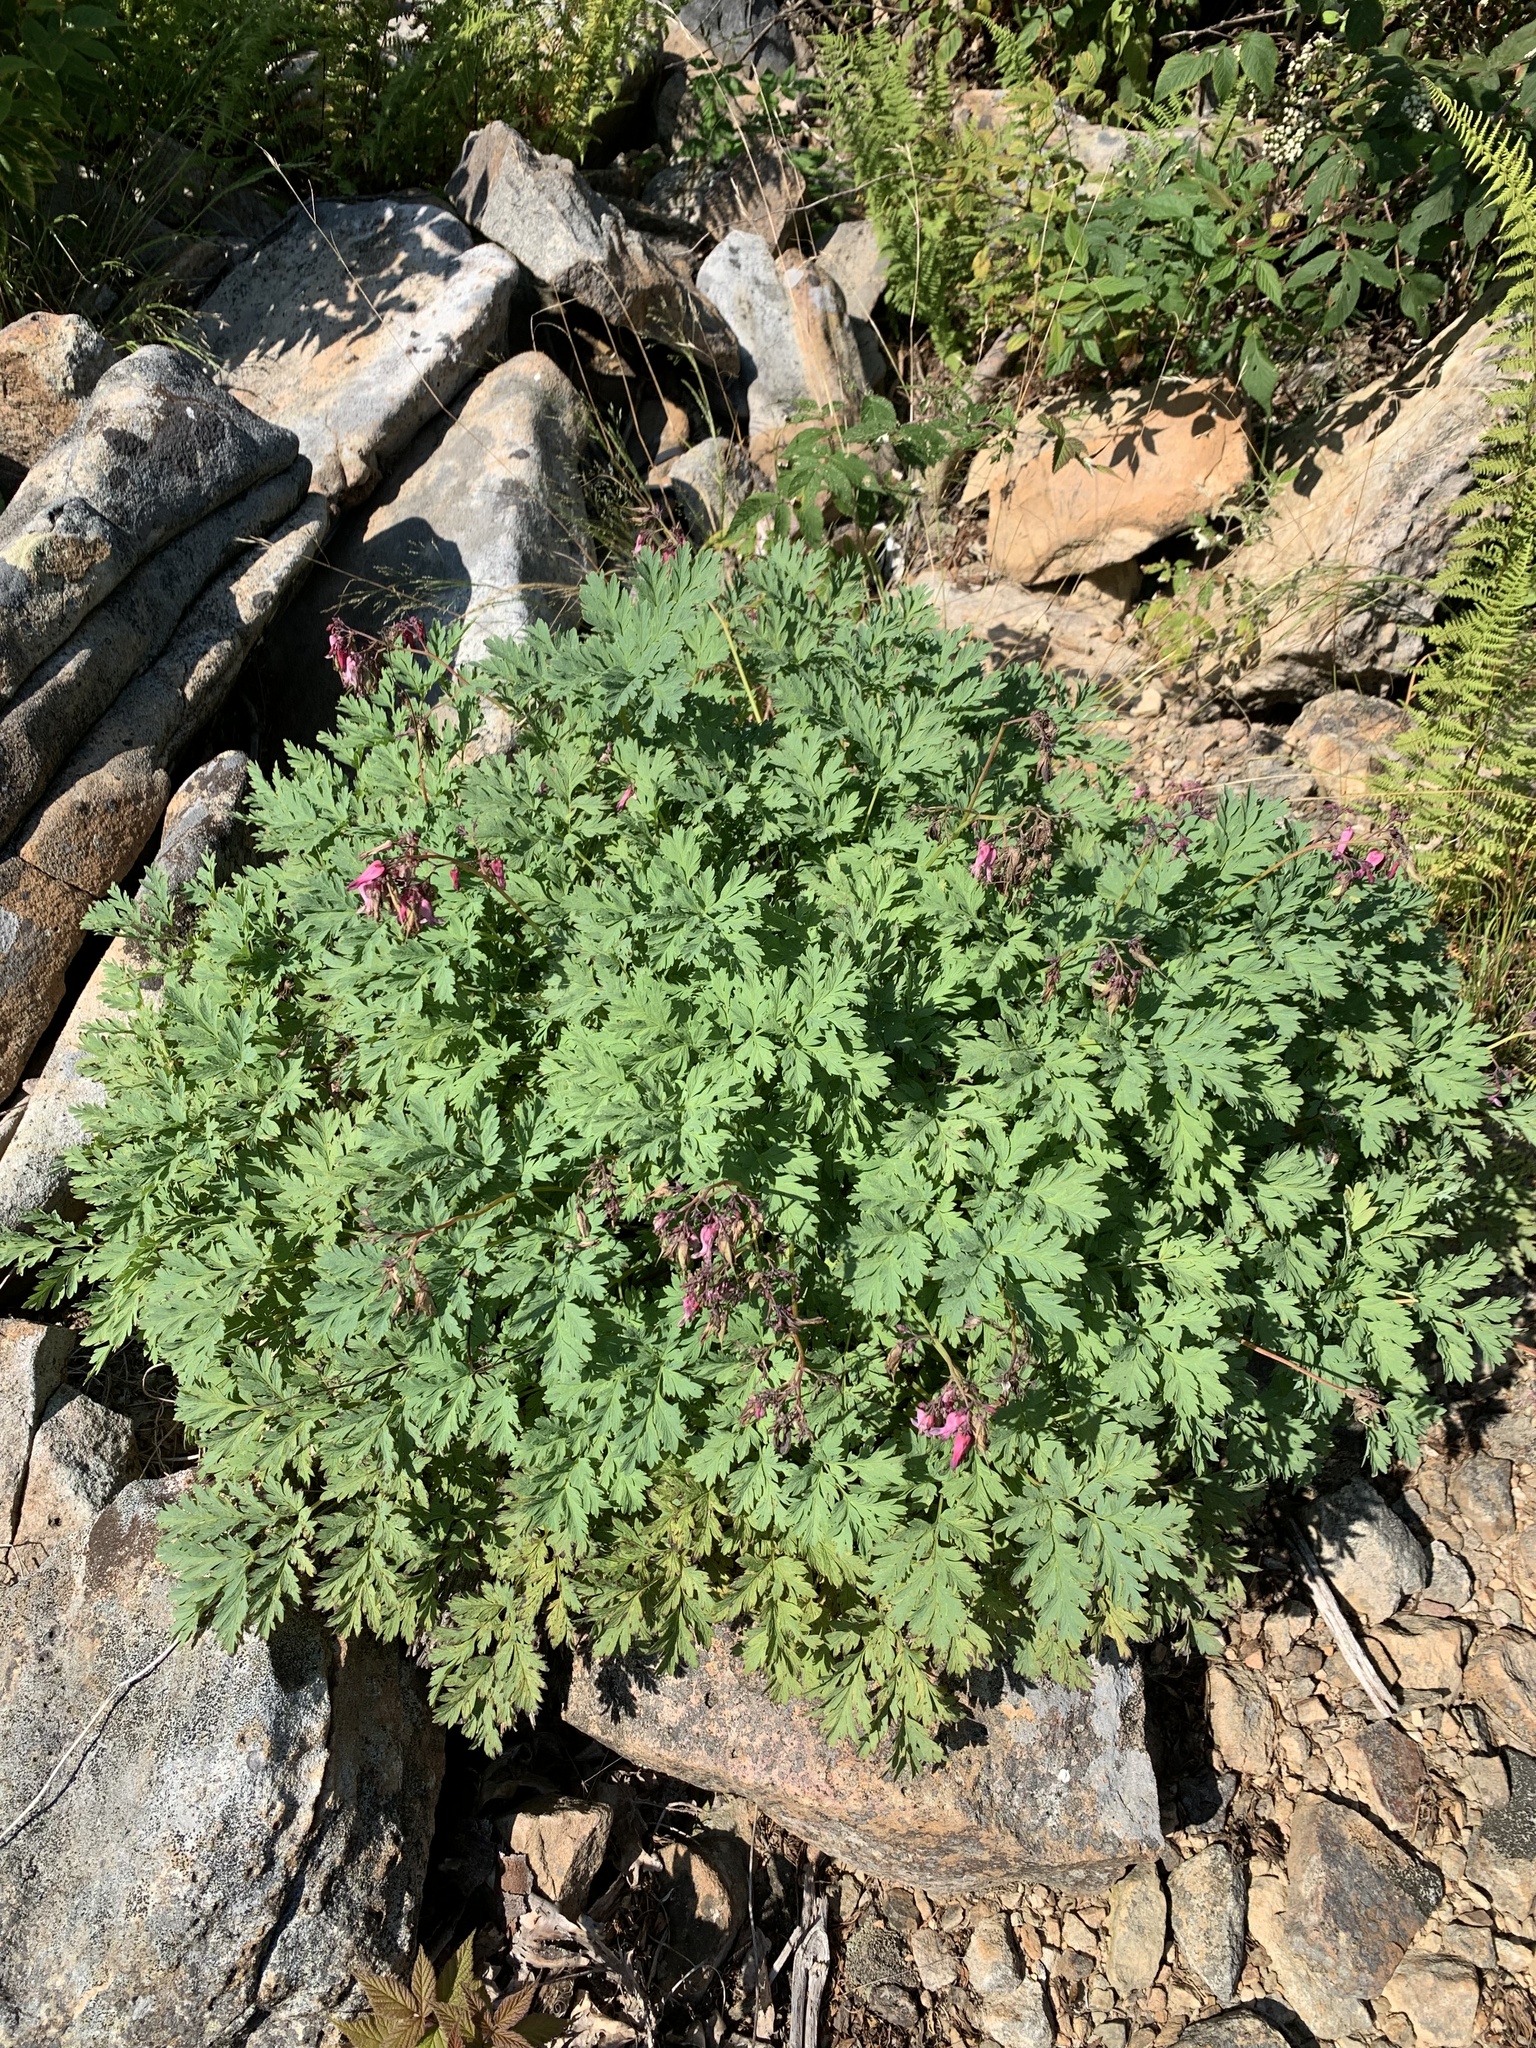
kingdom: Plantae
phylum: Tracheophyta
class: Magnoliopsida
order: Ranunculales
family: Papaveraceae
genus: Dicentra
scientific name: Dicentra eximia
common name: Turkey-corn
